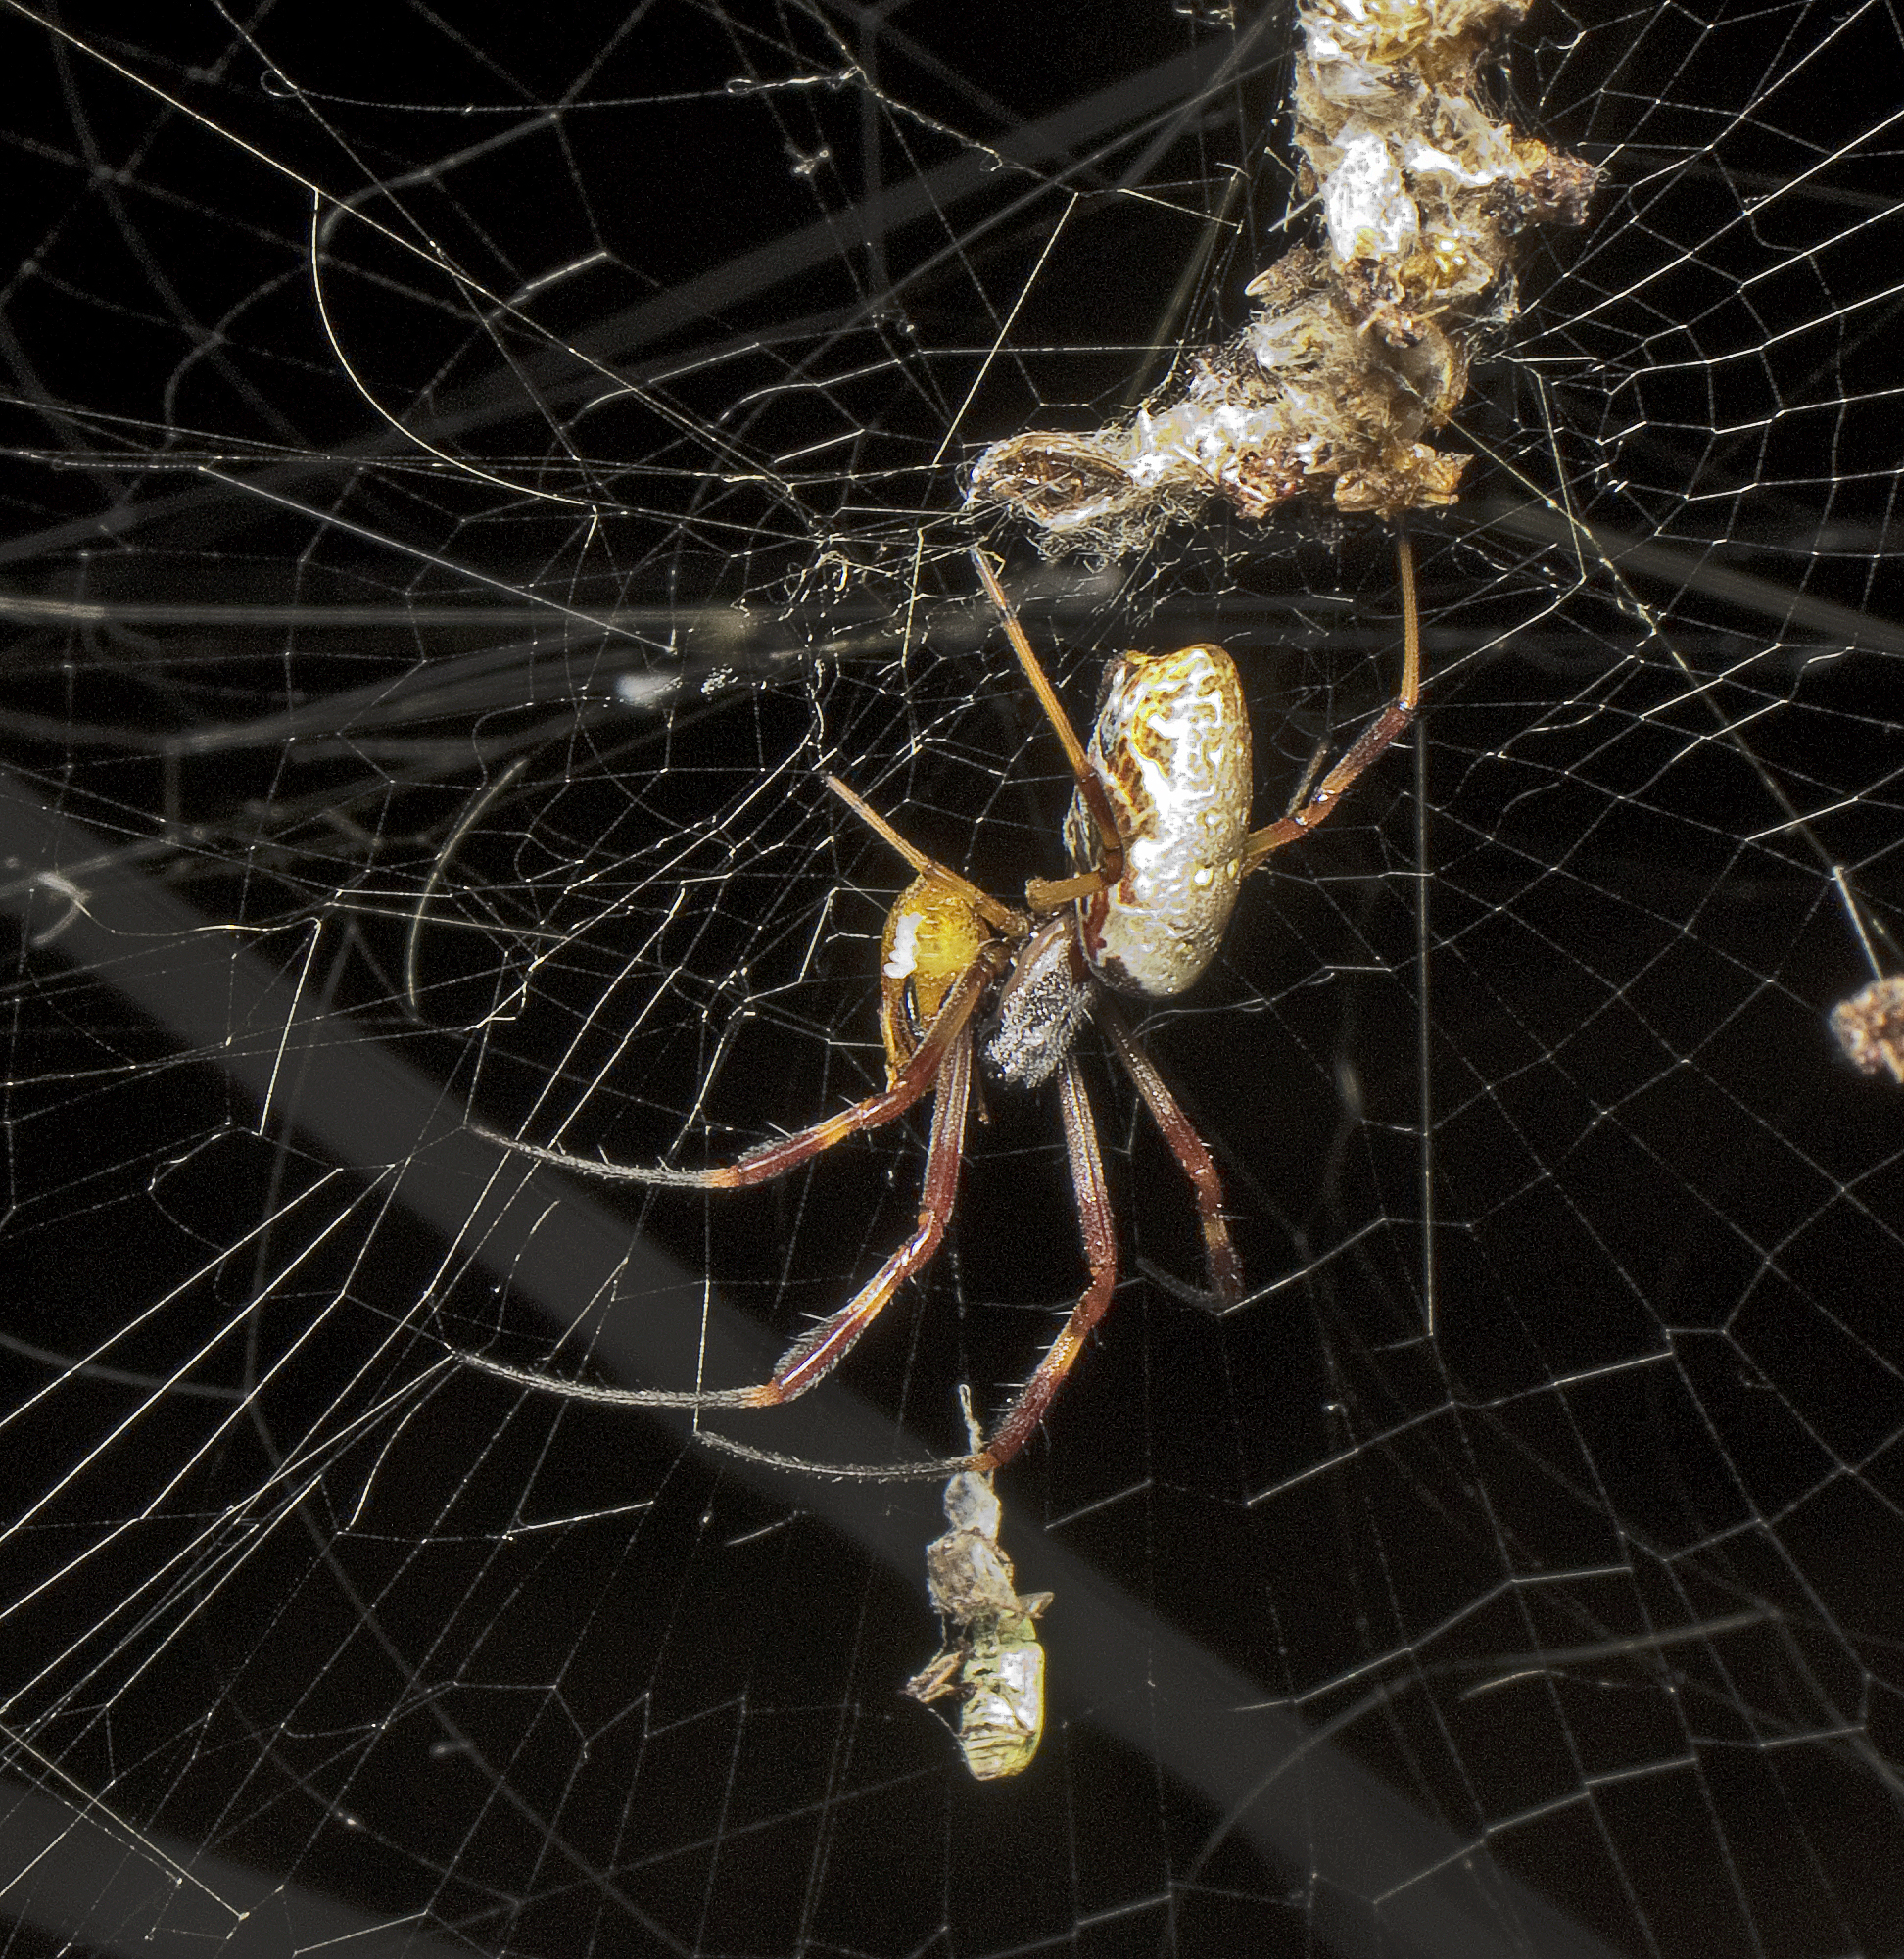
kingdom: Animalia
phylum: Arthropoda
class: Arachnida
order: Araneae
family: Araneidae
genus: Trichonephila
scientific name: Trichonephila edulis
